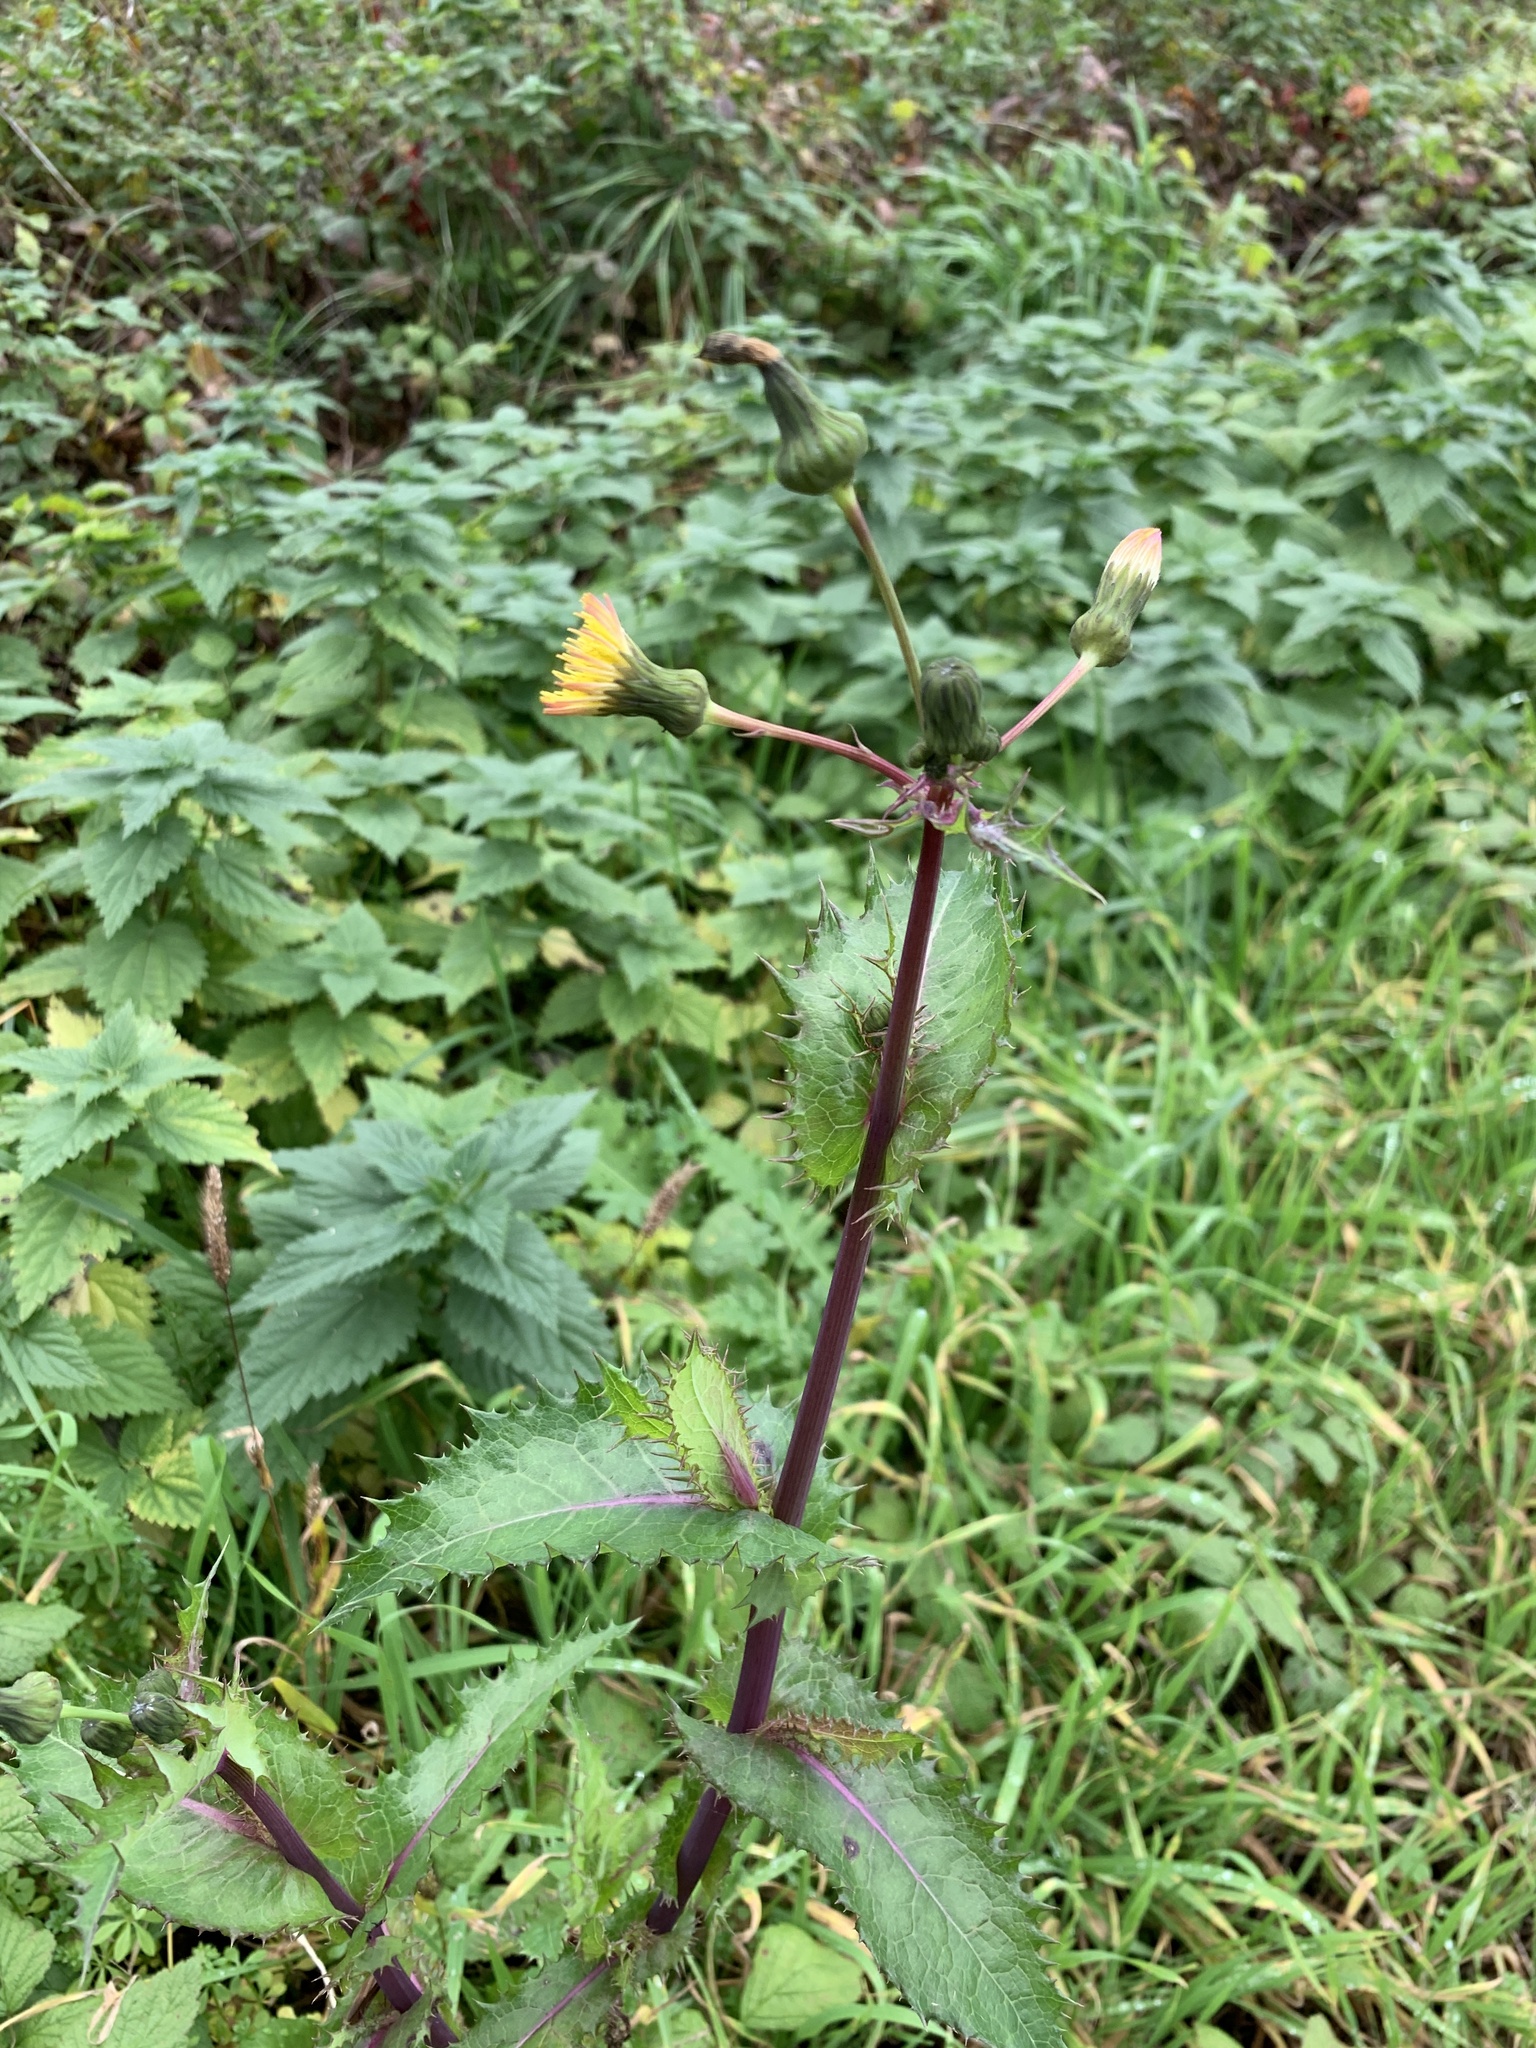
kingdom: Plantae
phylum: Tracheophyta
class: Magnoliopsida
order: Asterales
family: Asteraceae
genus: Sonchus
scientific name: Sonchus asper
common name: Prickly sow-thistle
